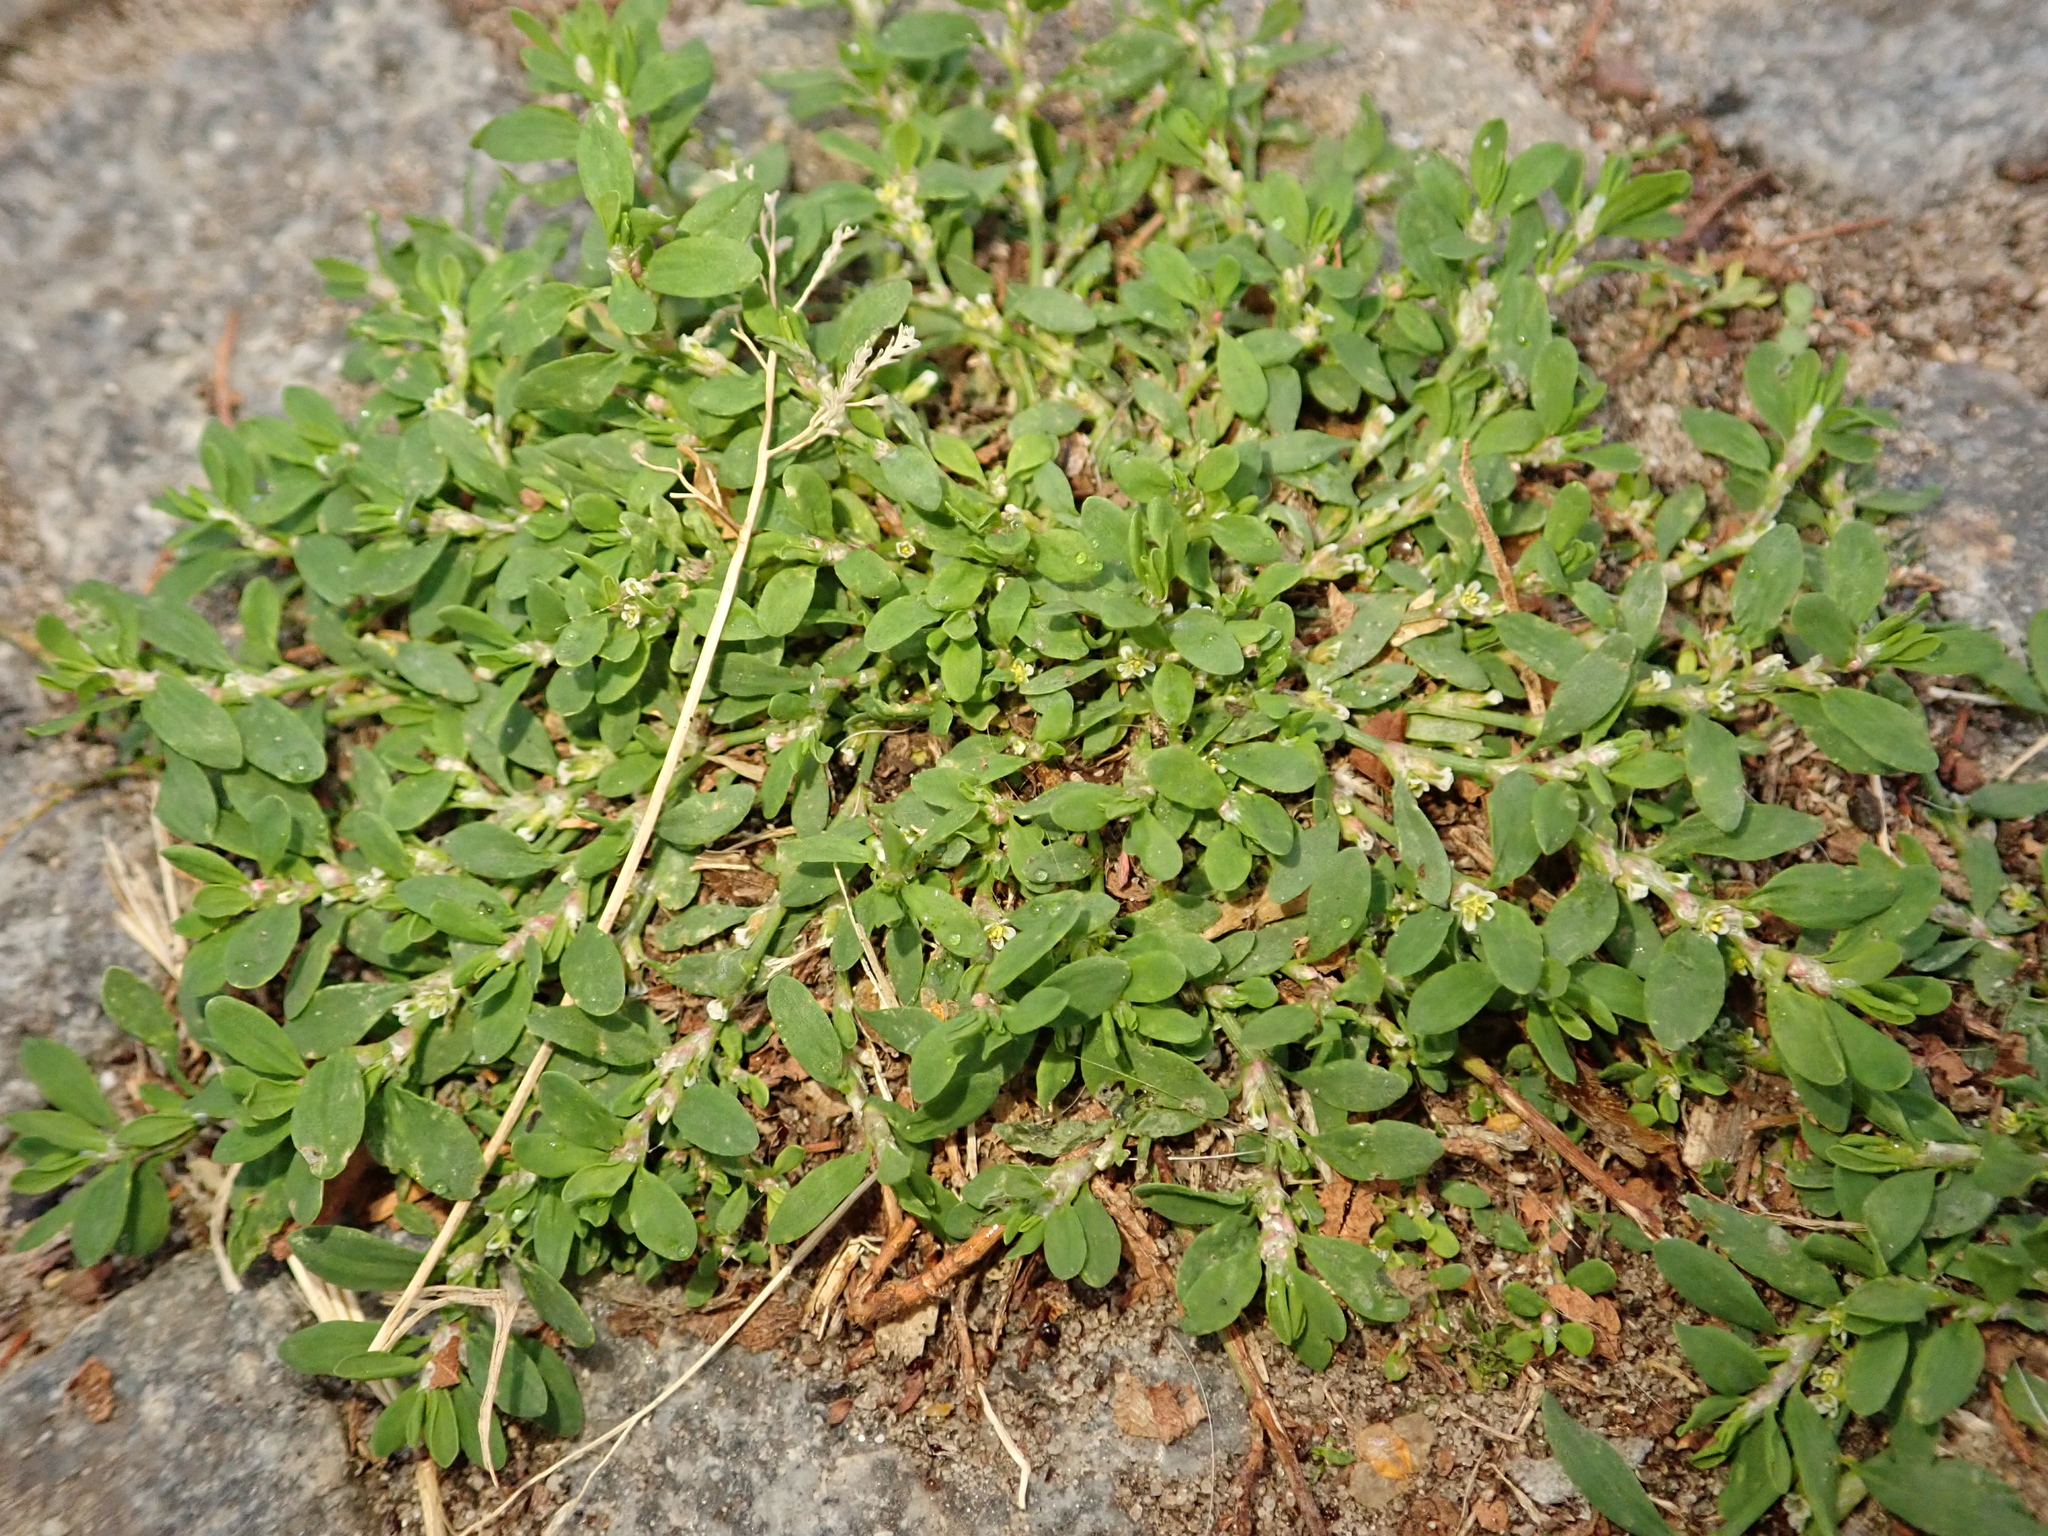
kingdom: Plantae
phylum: Tracheophyta
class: Magnoliopsida
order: Caryophyllales
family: Polygonaceae
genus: Polygonum
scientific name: Polygonum aviculare
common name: Prostrate knotweed
